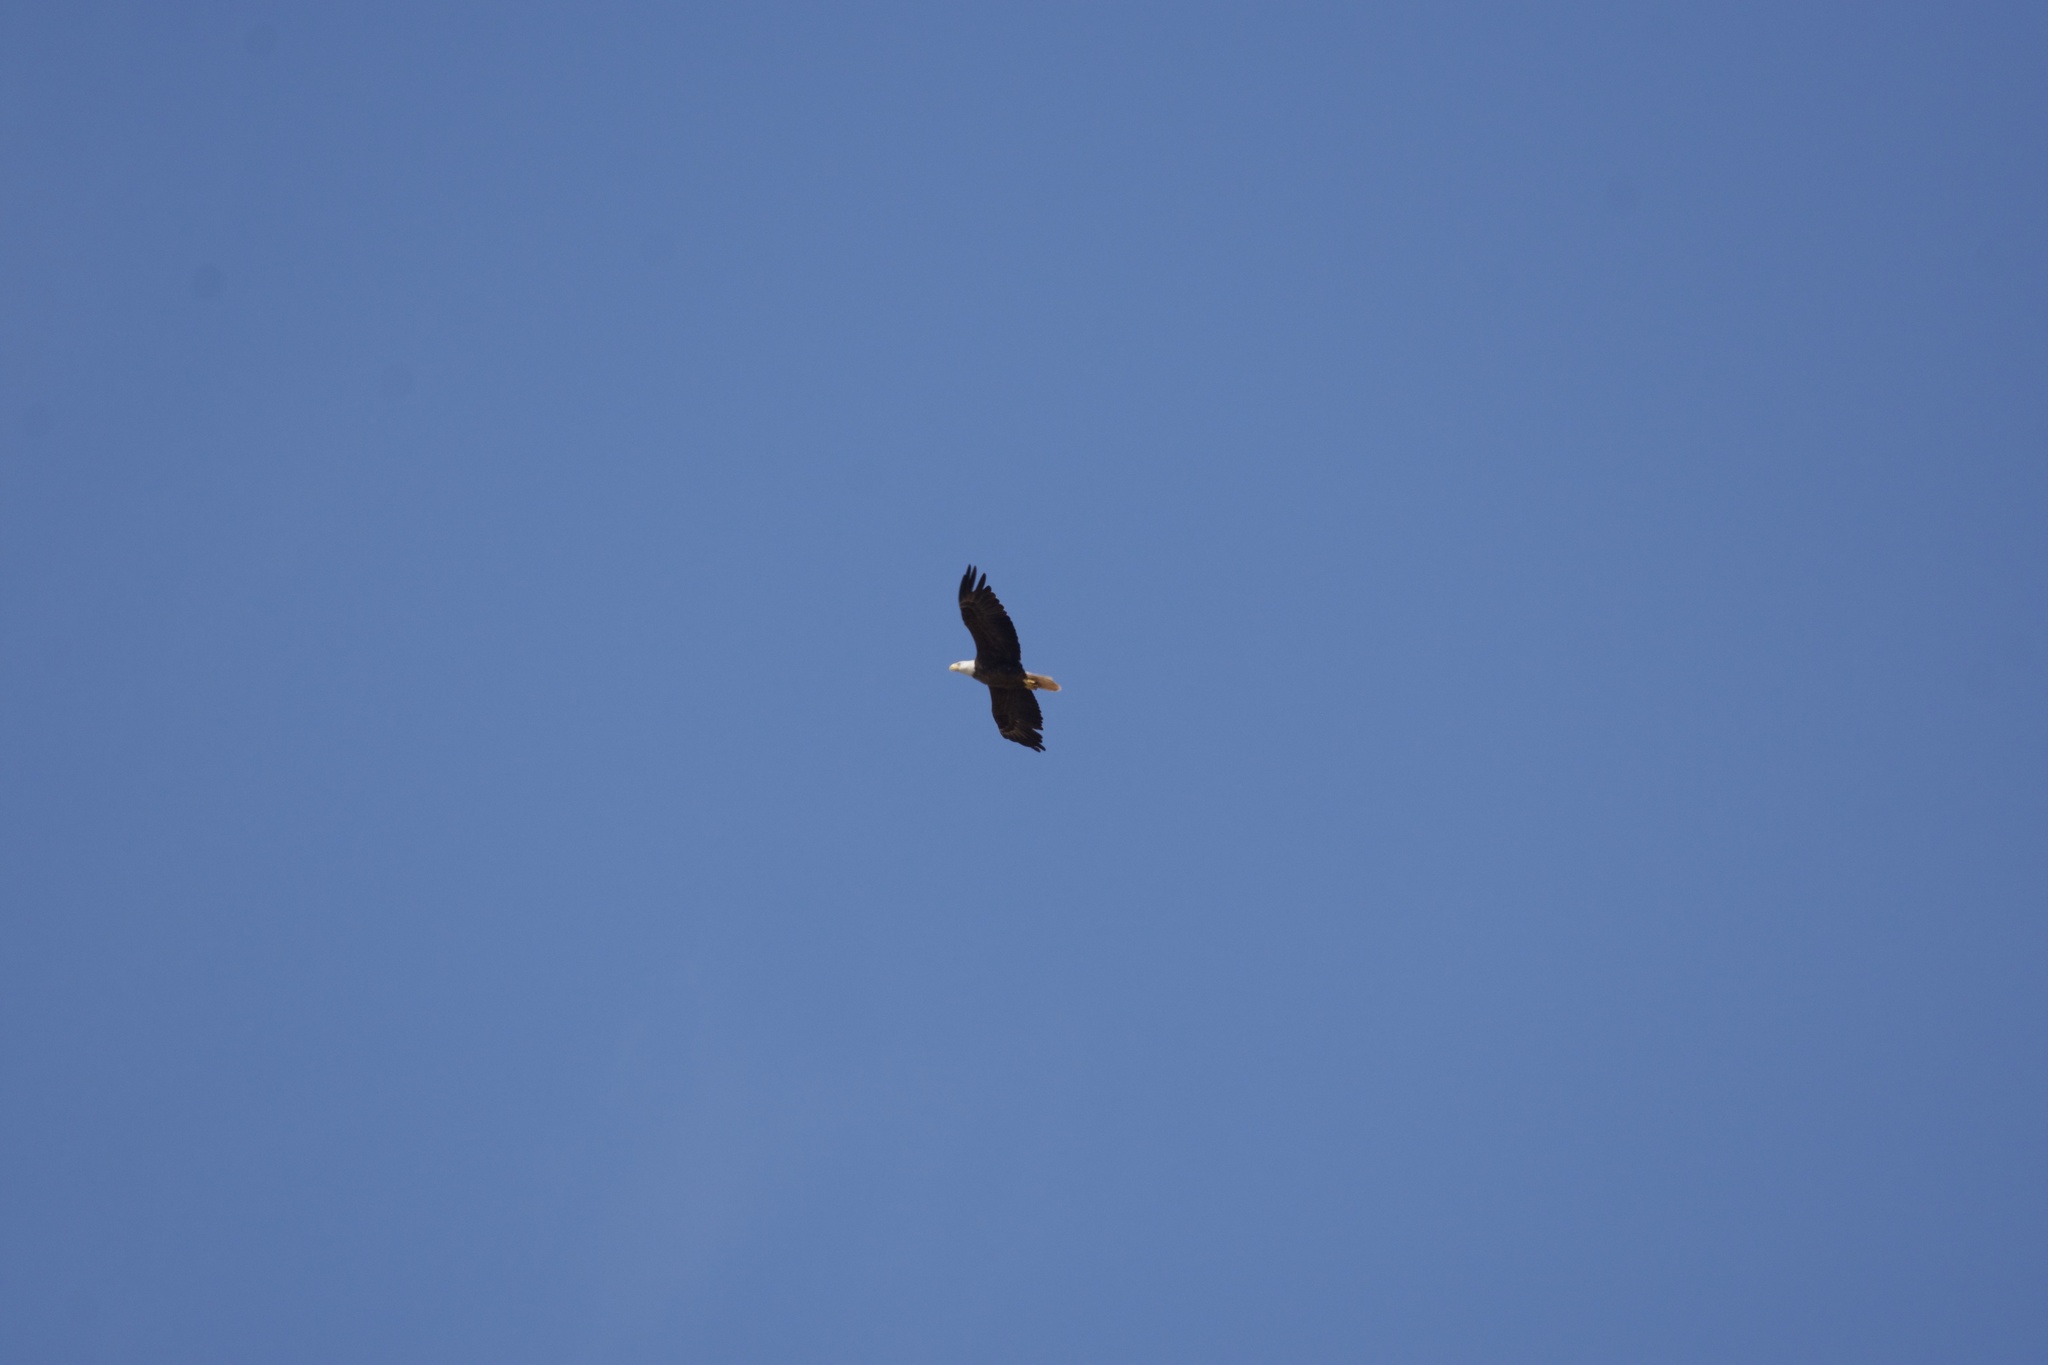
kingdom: Animalia
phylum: Chordata
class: Aves
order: Accipitriformes
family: Accipitridae
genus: Haliaeetus
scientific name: Haliaeetus leucocephalus
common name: Bald eagle
